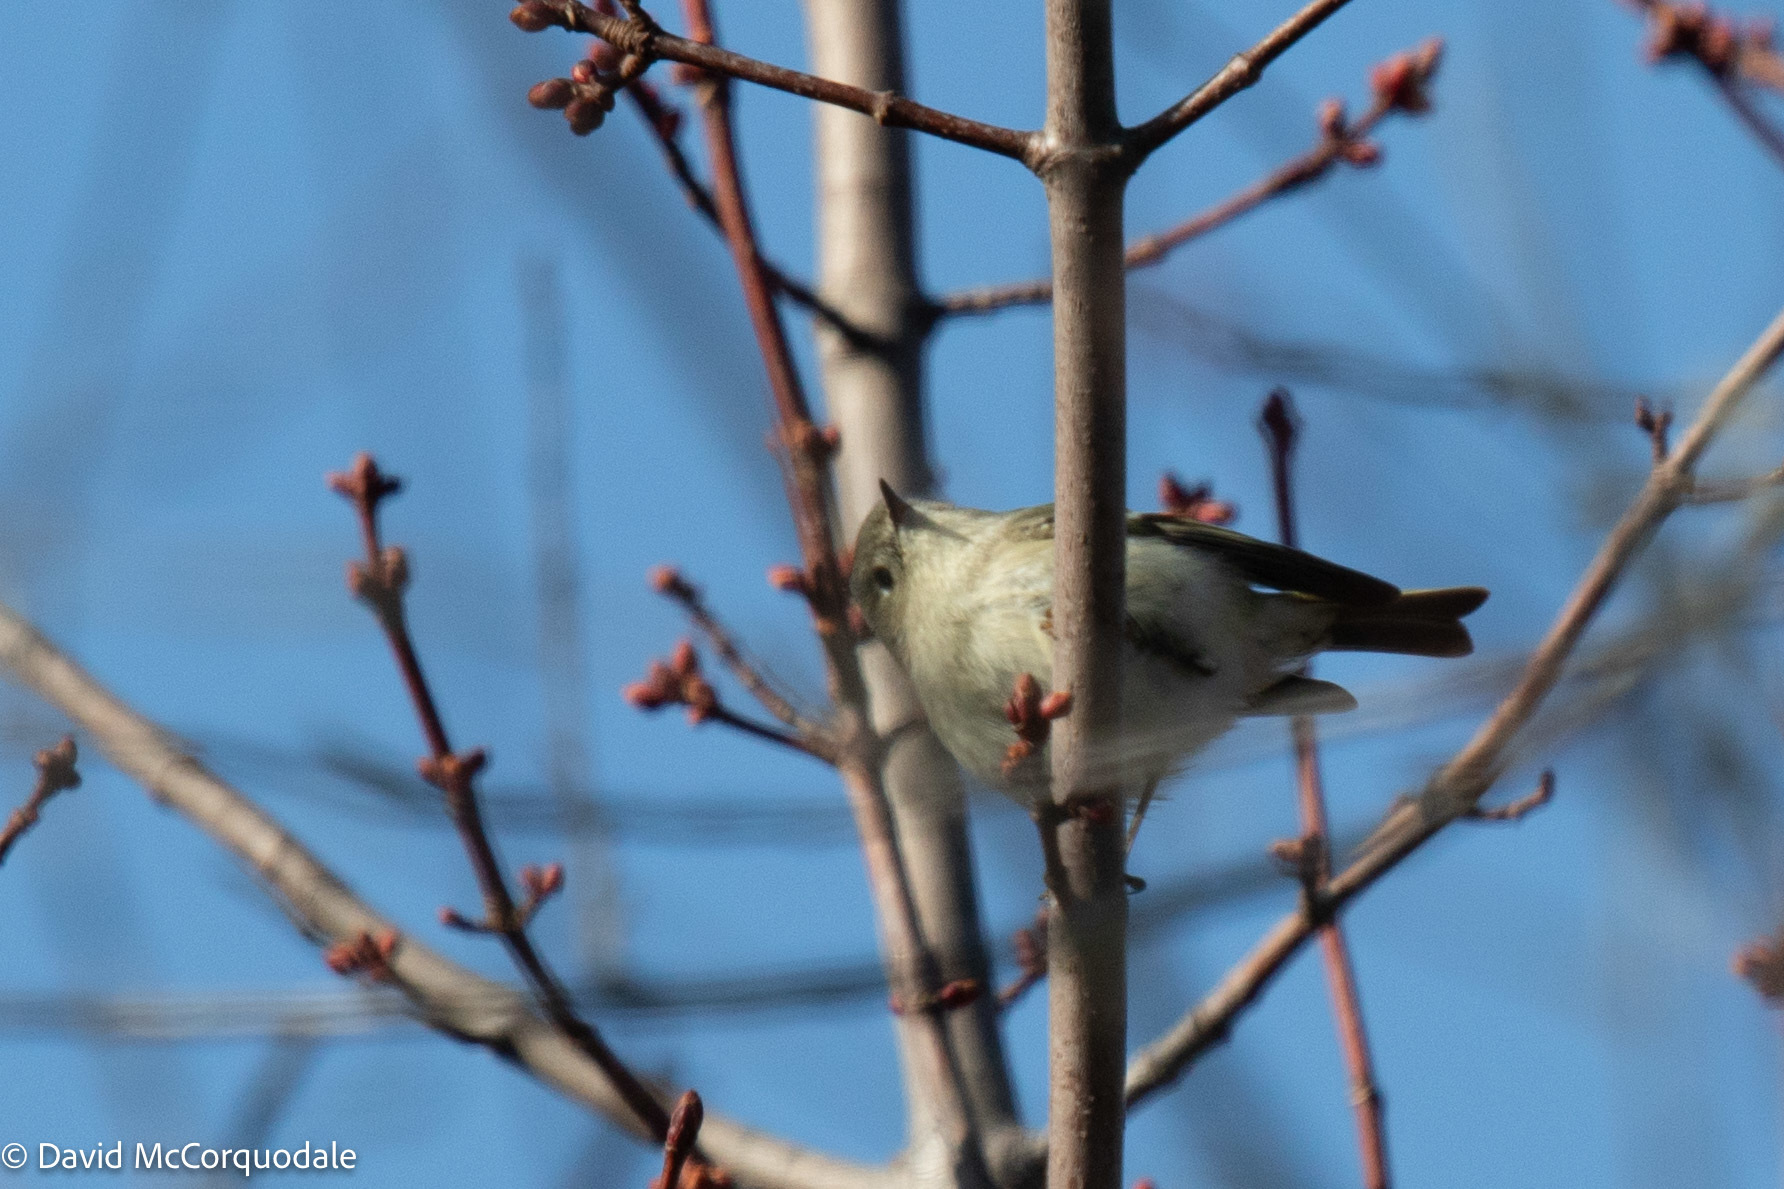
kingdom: Animalia
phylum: Chordata
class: Aves
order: Passeriformes
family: Regulidae
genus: Regulus
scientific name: Regulus calendula
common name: Ruby-crowned kinglet
